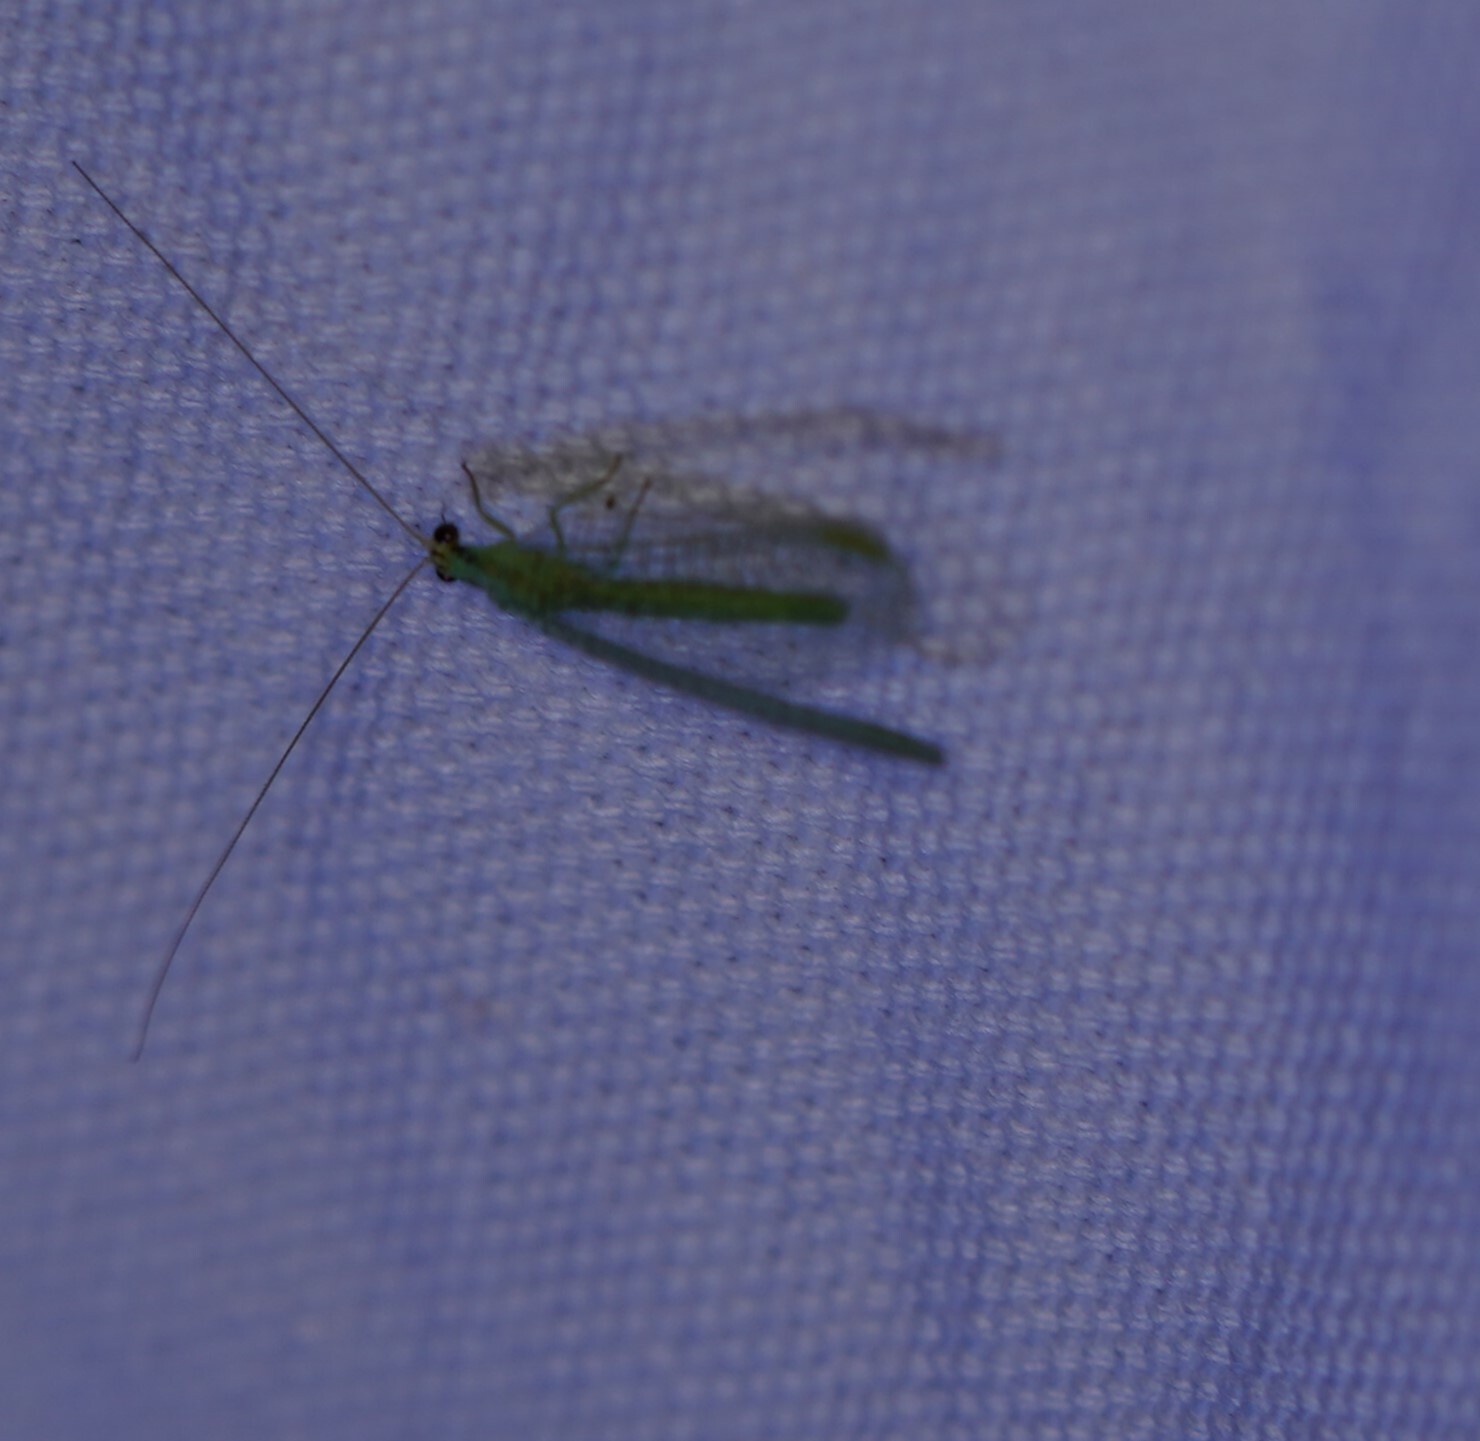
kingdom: Animalia
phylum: Arthropoda
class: Insecta
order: Neuroptera
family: Chrysopidae
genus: Chrysopa
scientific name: Chrysopa incompleta
